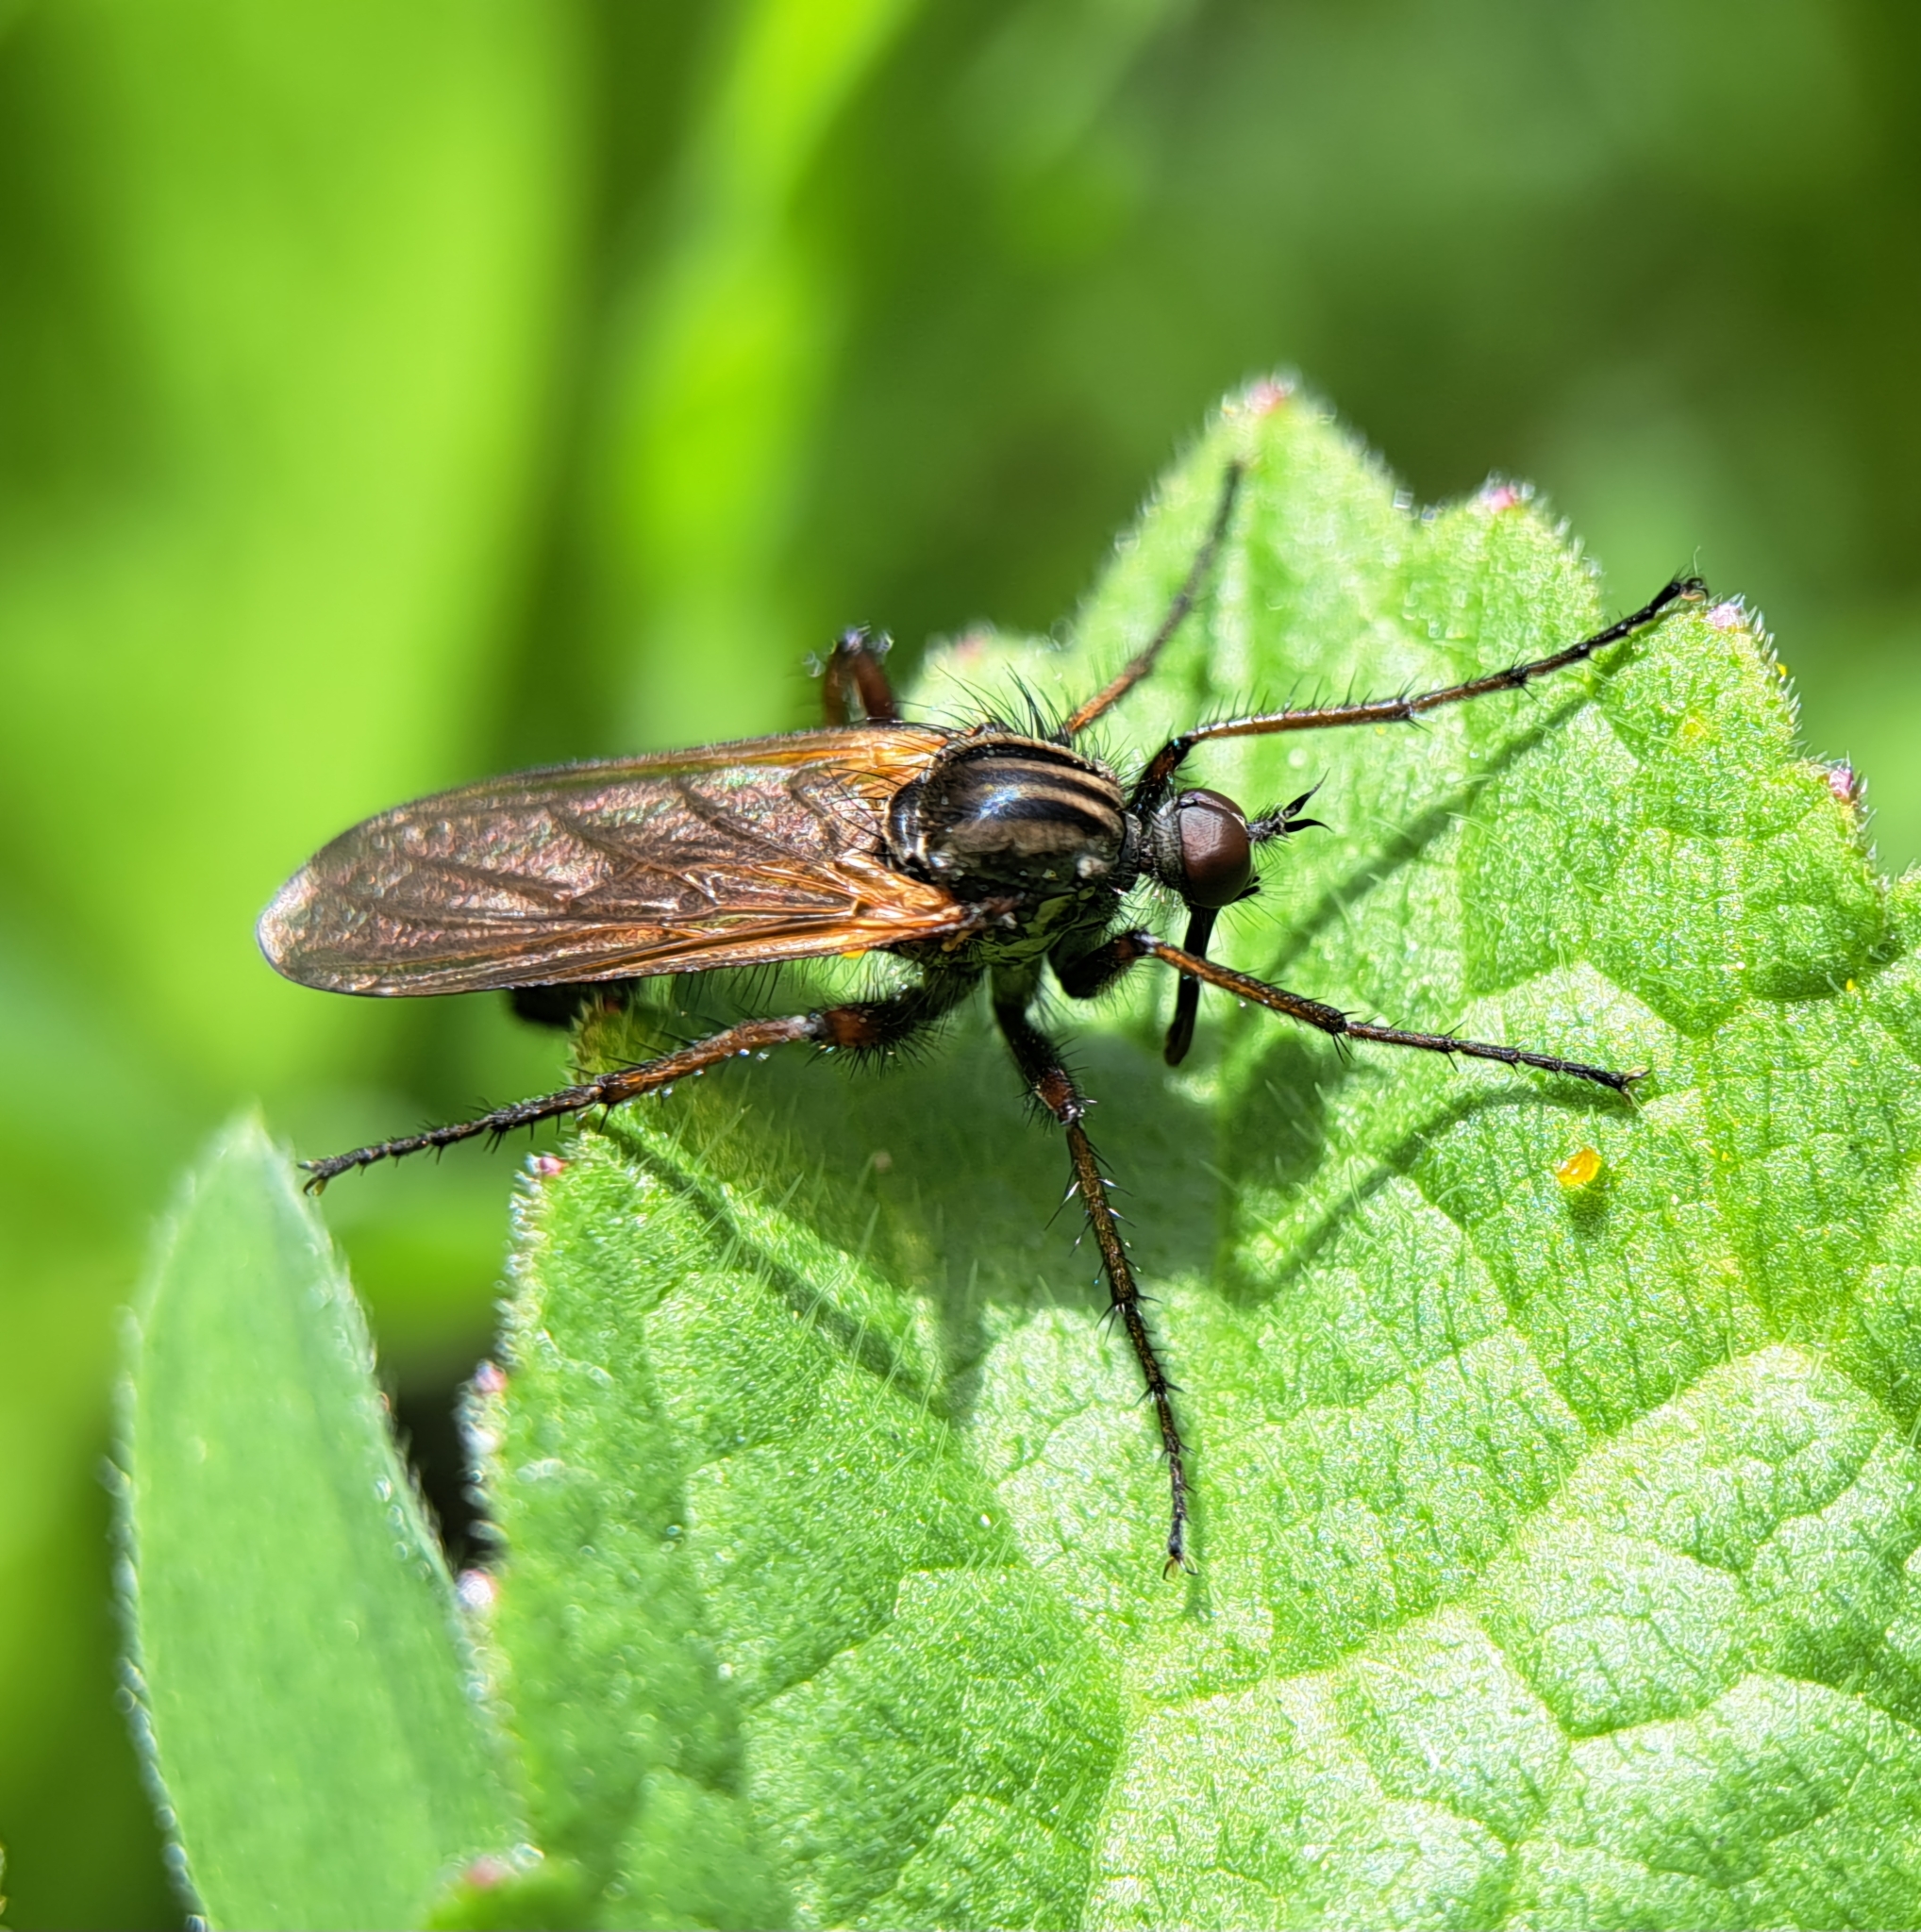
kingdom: Animalia
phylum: Arthropoda
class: Insecta
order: Diptera
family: Empididae
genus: Empis
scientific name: Empis tessellata
